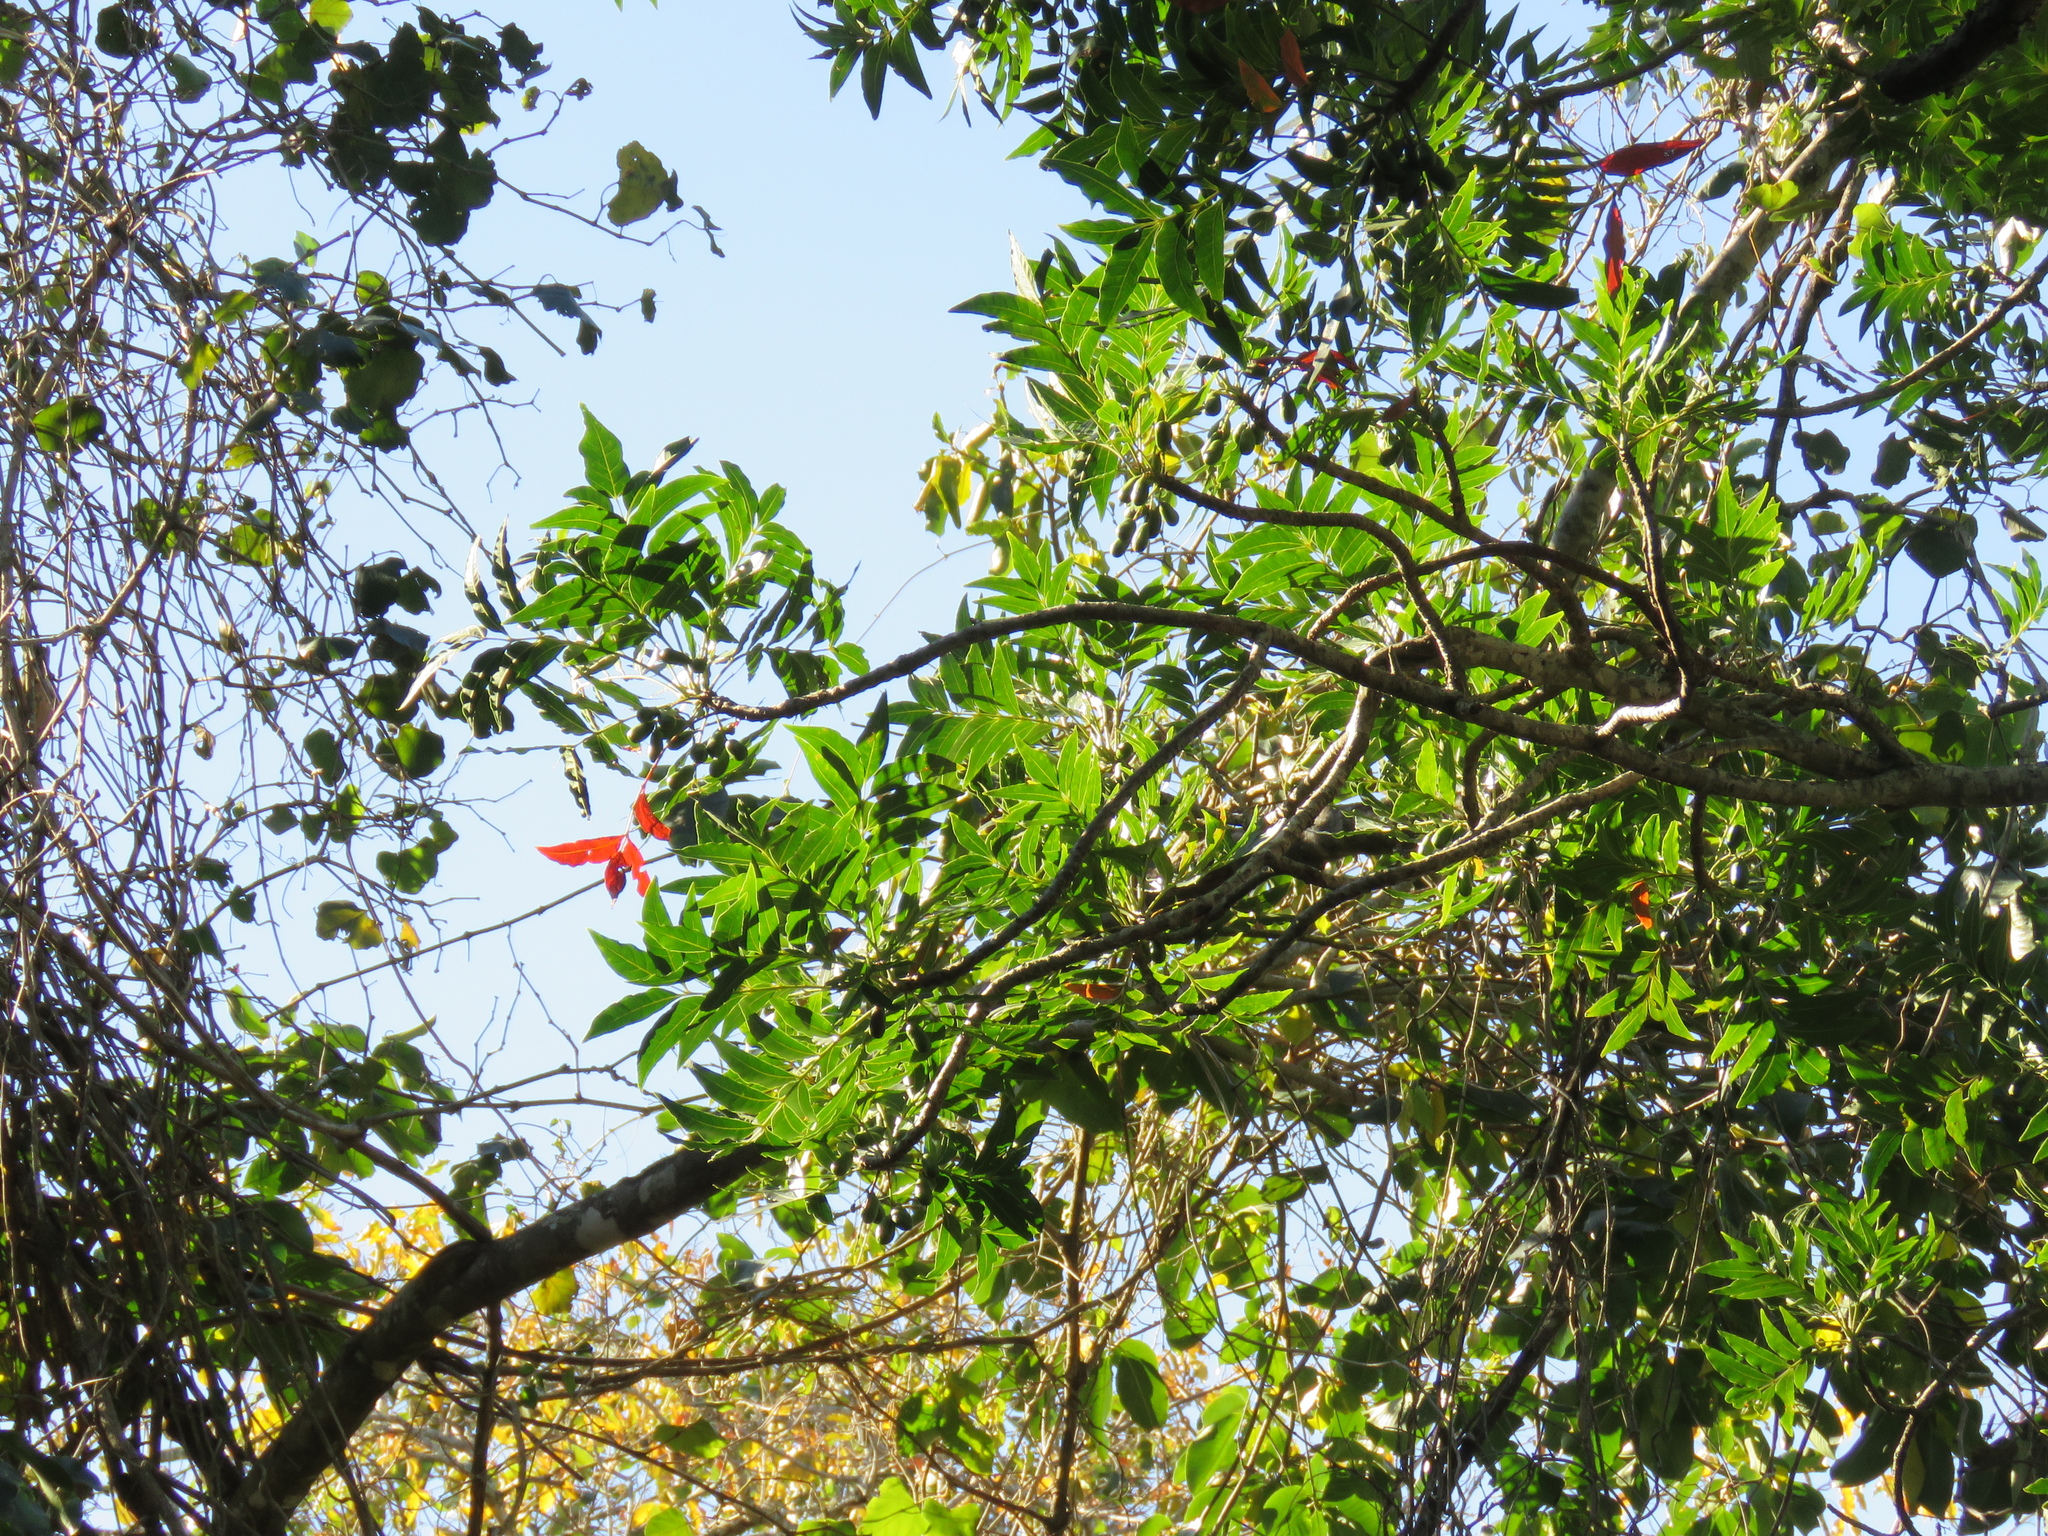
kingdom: Plantae
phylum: Tracheophyta
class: Magnoliopsida
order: Sapindales
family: Anacardiaceae
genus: Harpephyllum
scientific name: Harpephyllum caffrum
